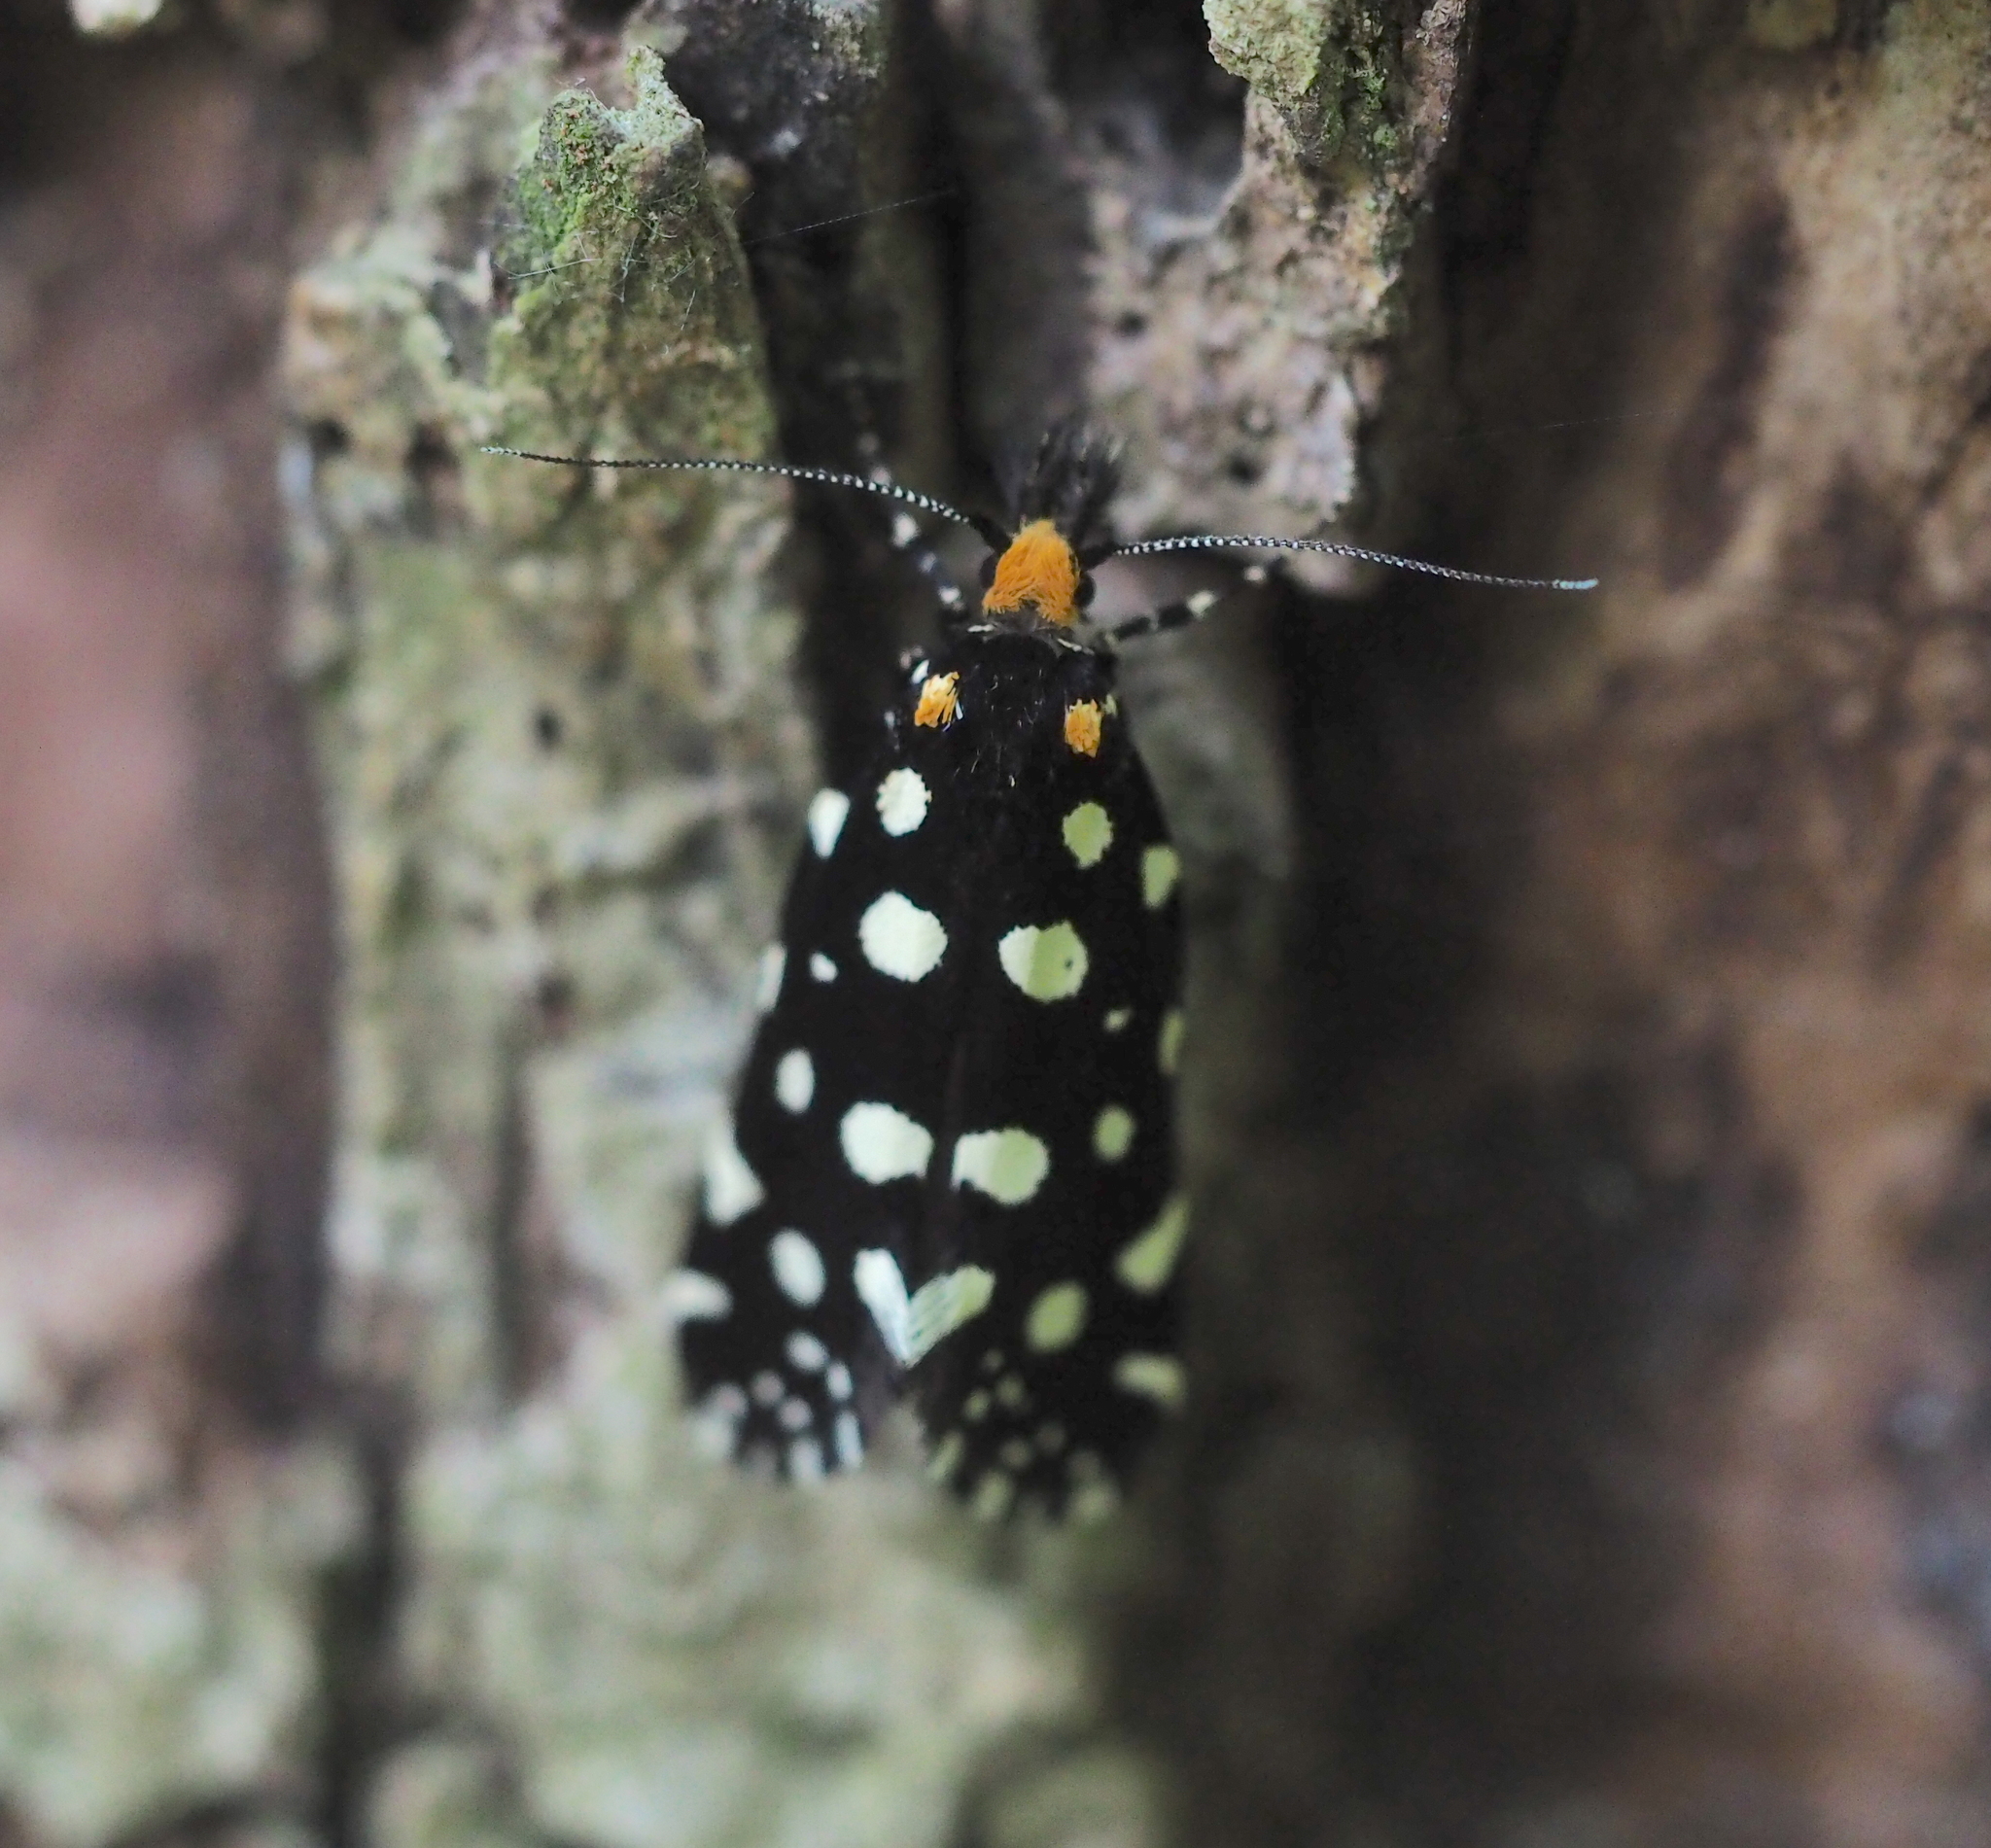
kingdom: Animalia
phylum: Arthropoda
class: Insecta
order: Lepidoptera
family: Tineidae
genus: Euplocamus
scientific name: Euplocamus anthracinalis
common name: Black clothes
